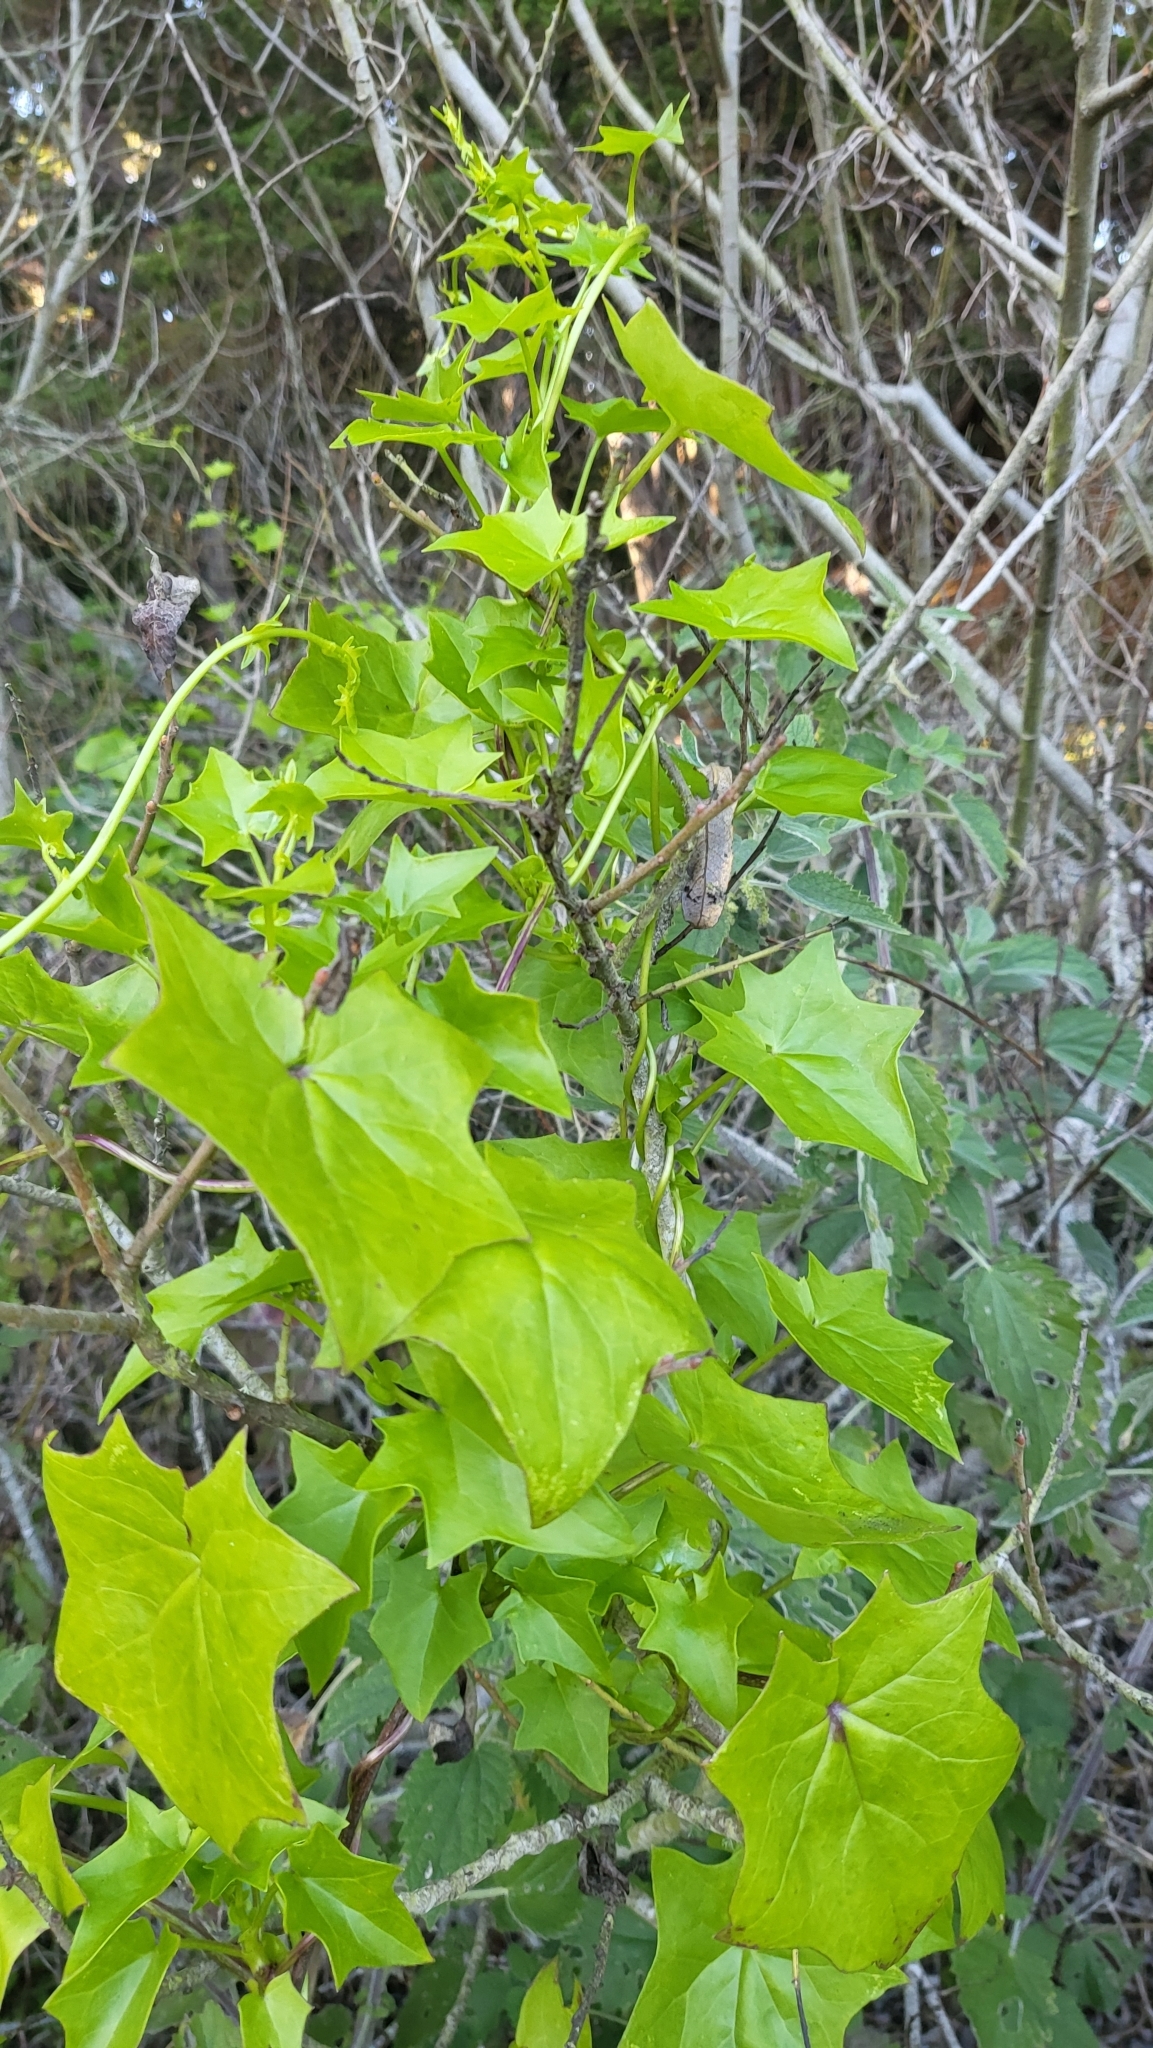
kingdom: Plantae
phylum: Tracheophyta
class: Magnoliopsida
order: Asterales
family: Asteraceae
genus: Delairea
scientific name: Delairea odorata
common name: Cape-ivy
